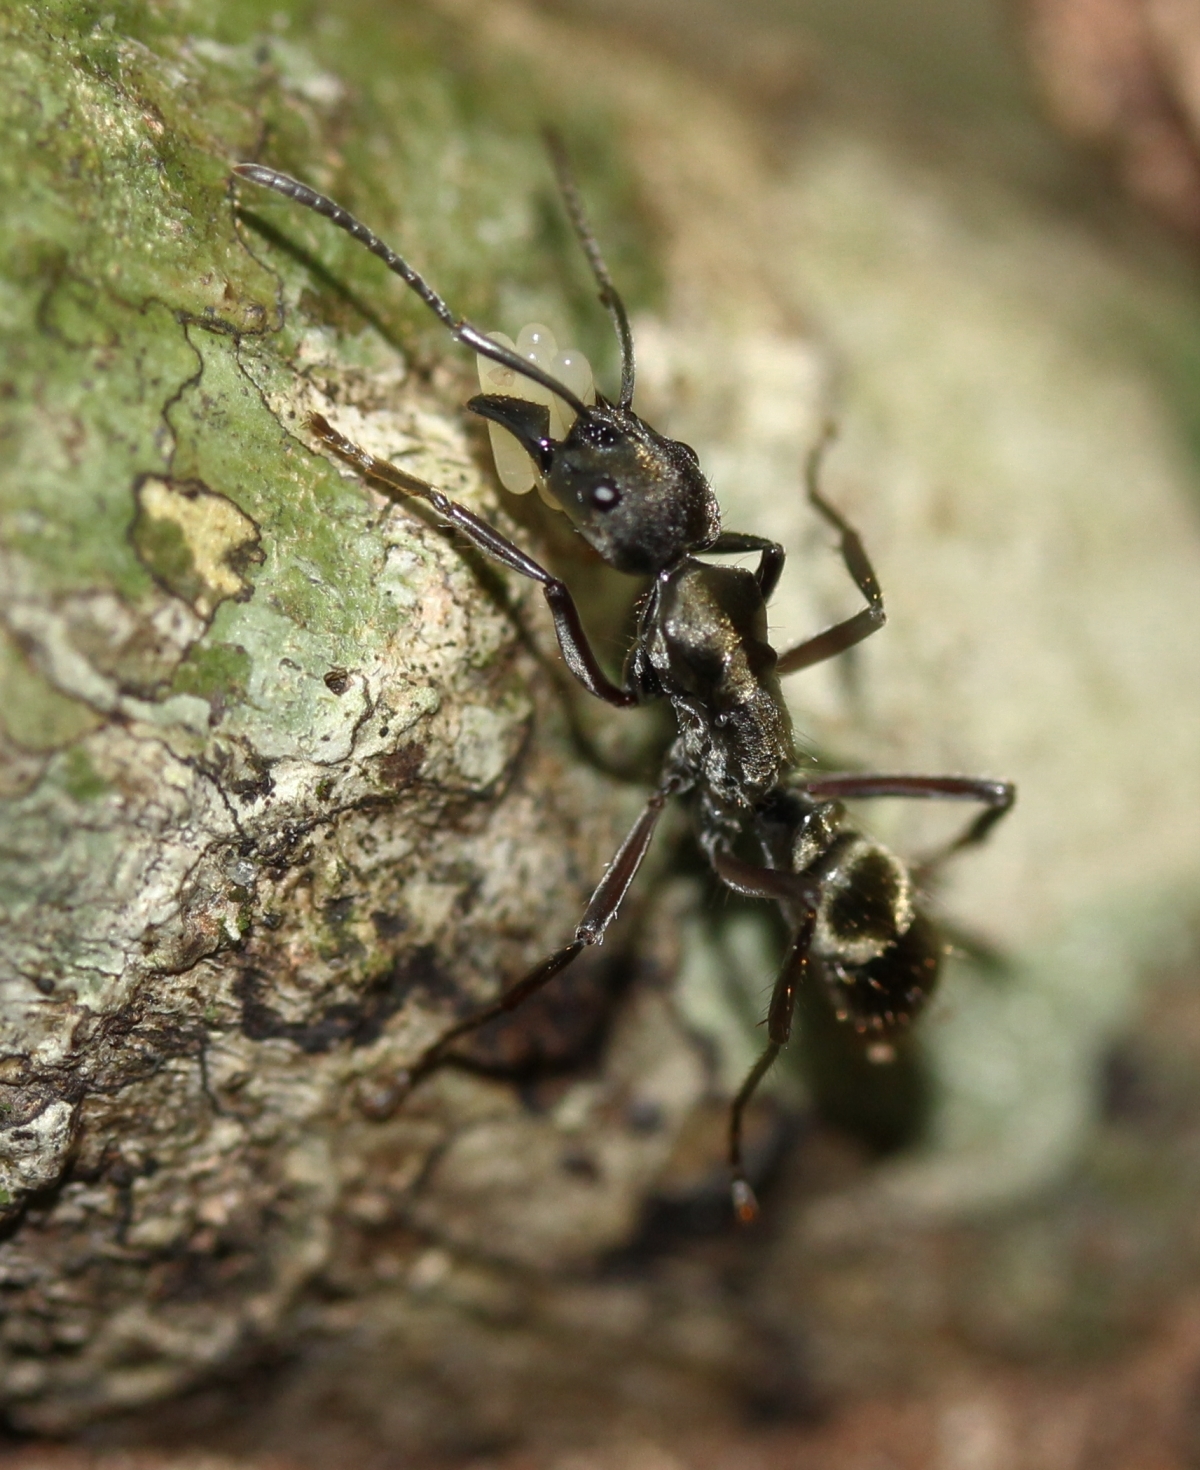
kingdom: Animalia
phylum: Arthropoda
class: Insecta
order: Hymenoptera
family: Formicidae
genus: Neoponera
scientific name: Neoponera
